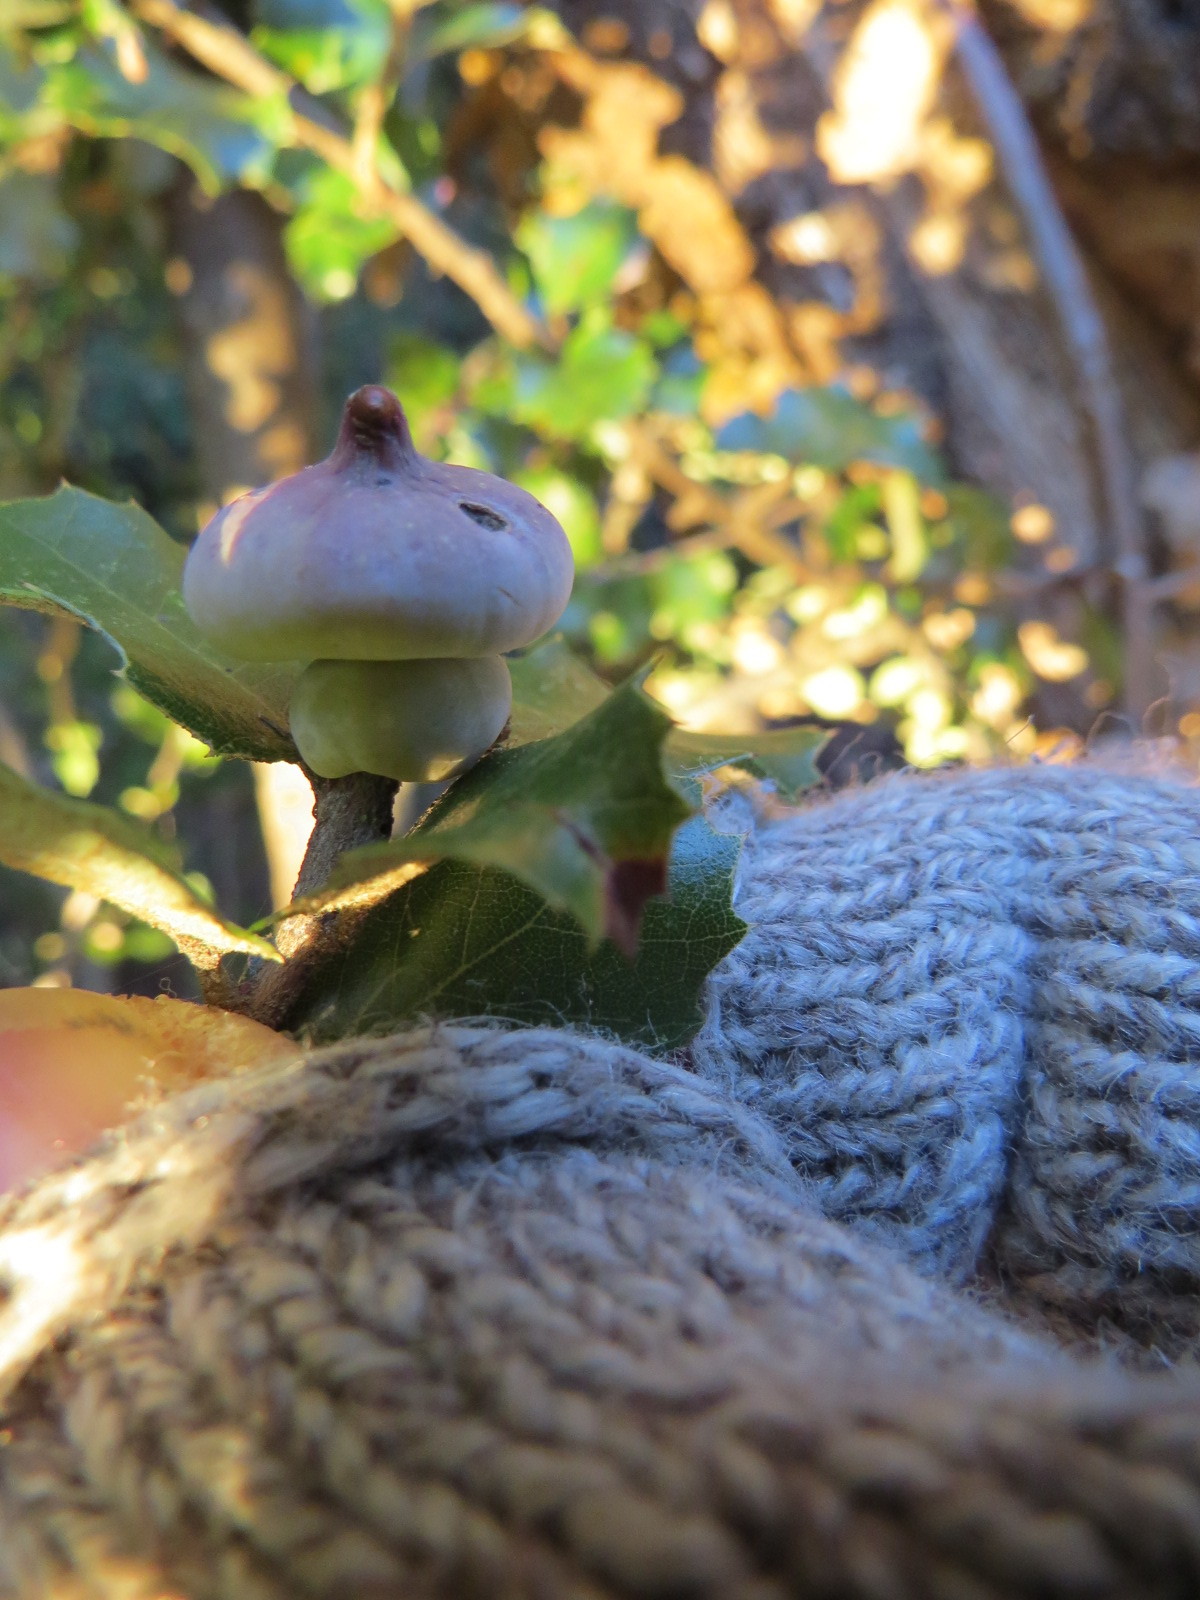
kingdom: Animalia
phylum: Arthropoda
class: Insecta
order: Hymenoptera
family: Cynipidae
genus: Heteroecus
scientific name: Heteroecus
